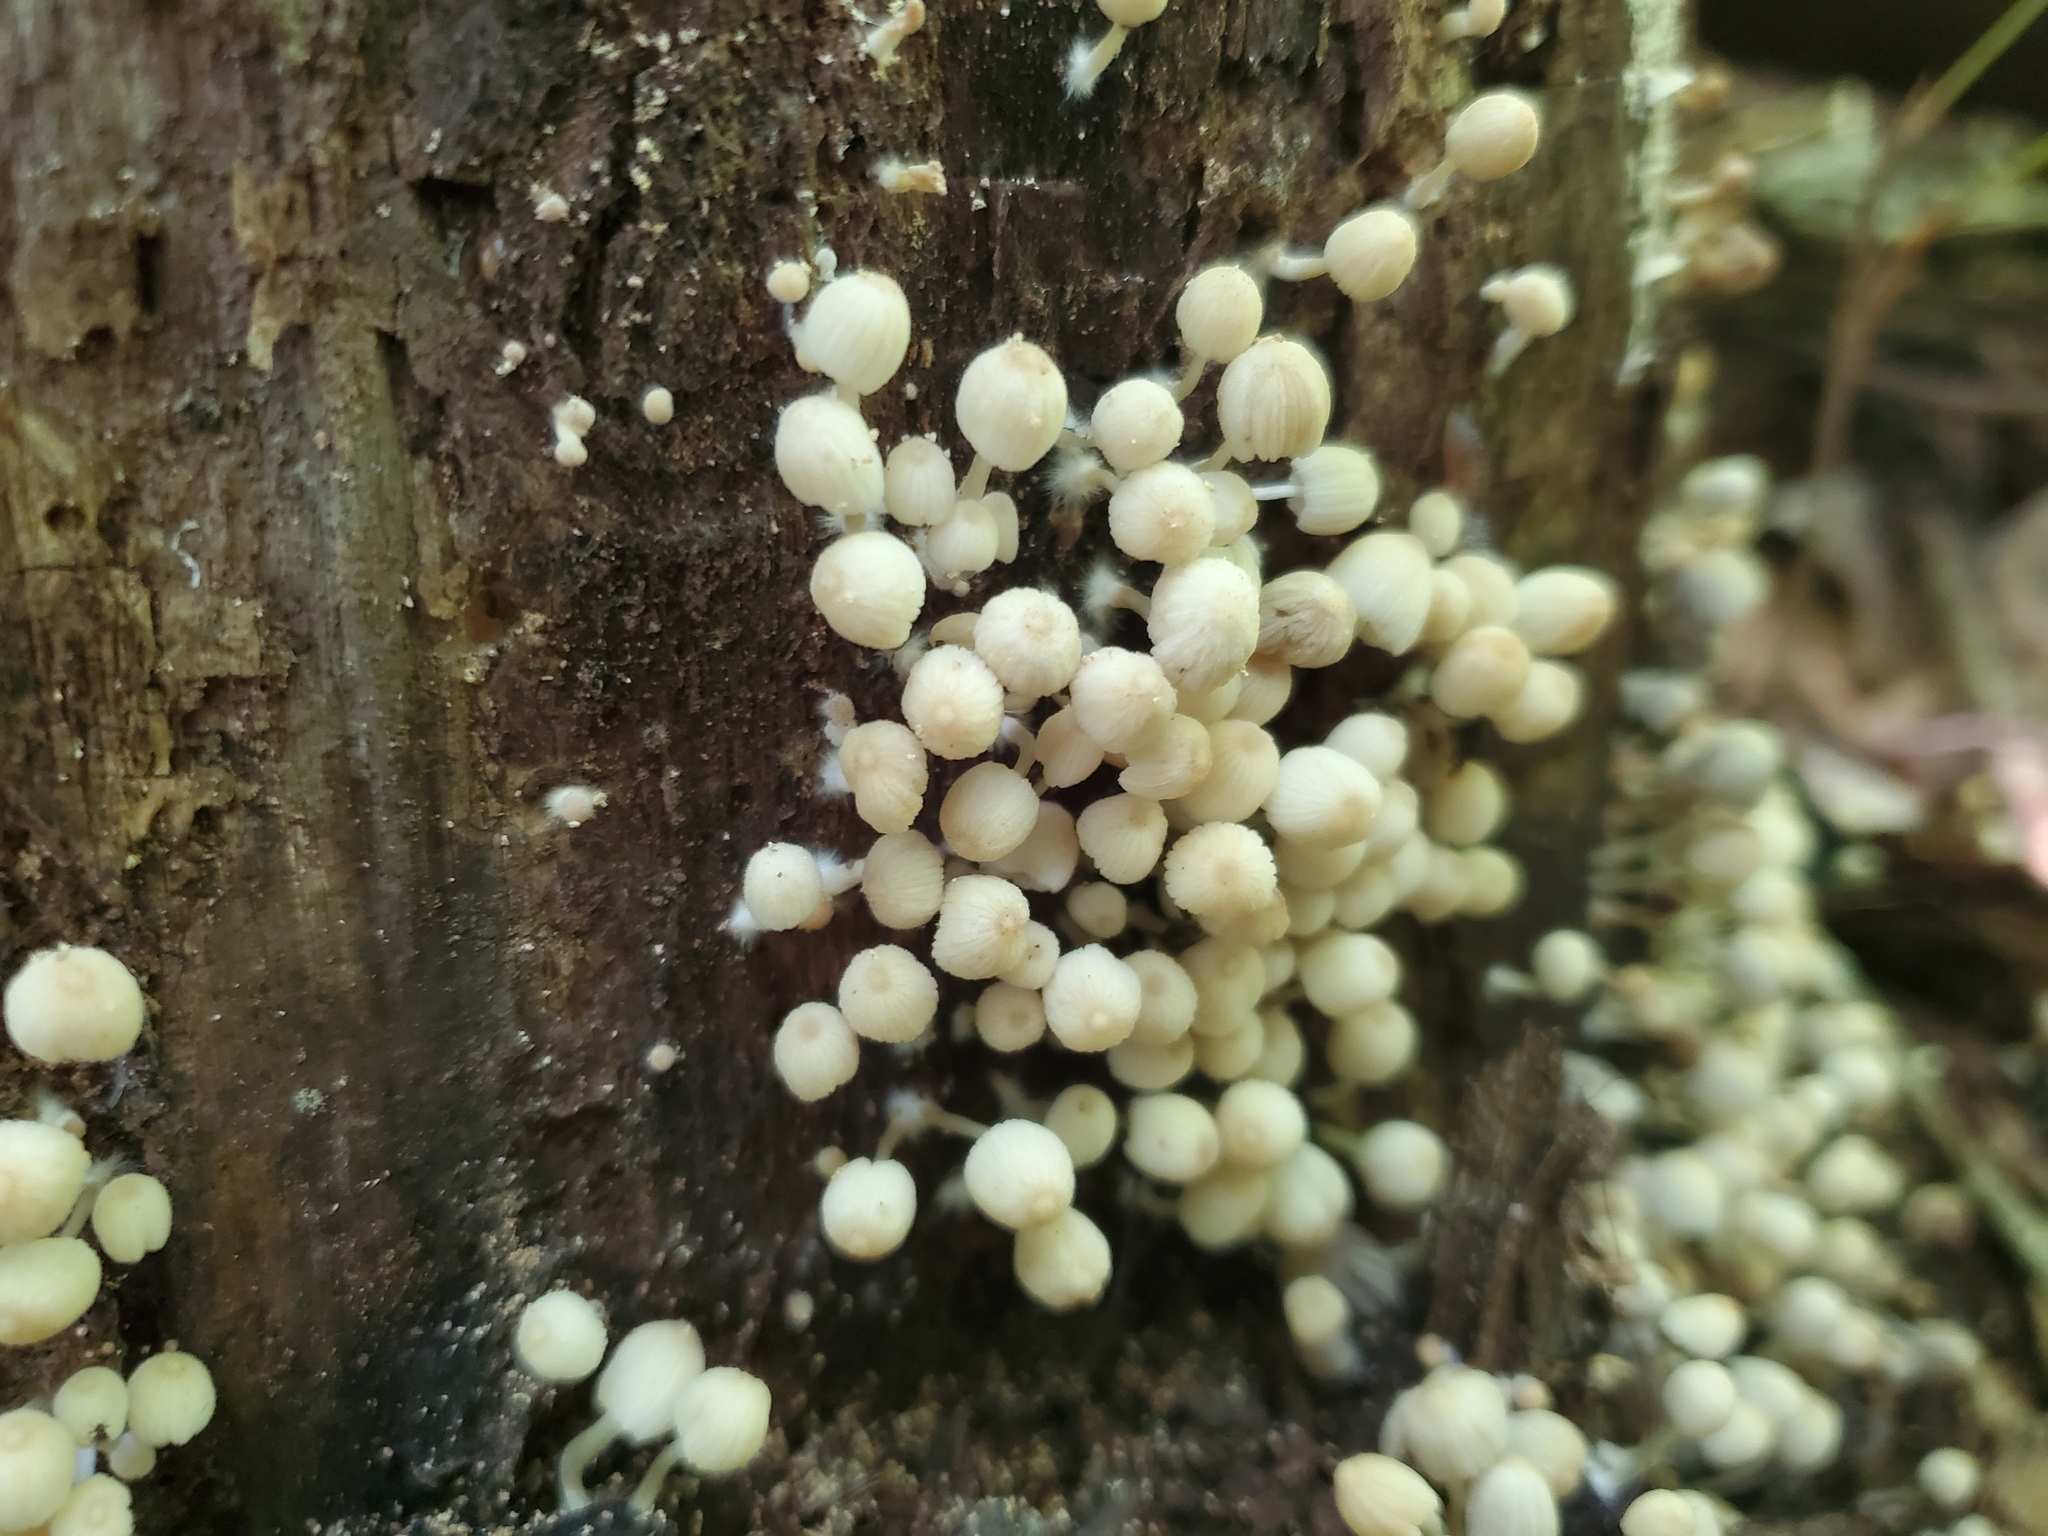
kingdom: Fungi
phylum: Basidiomycota
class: Agaricomycetes
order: Agaricales
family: Psathyrellaceae
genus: Coprinellus
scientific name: Coprinellus disseminatus
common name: Fairies' bonnets
